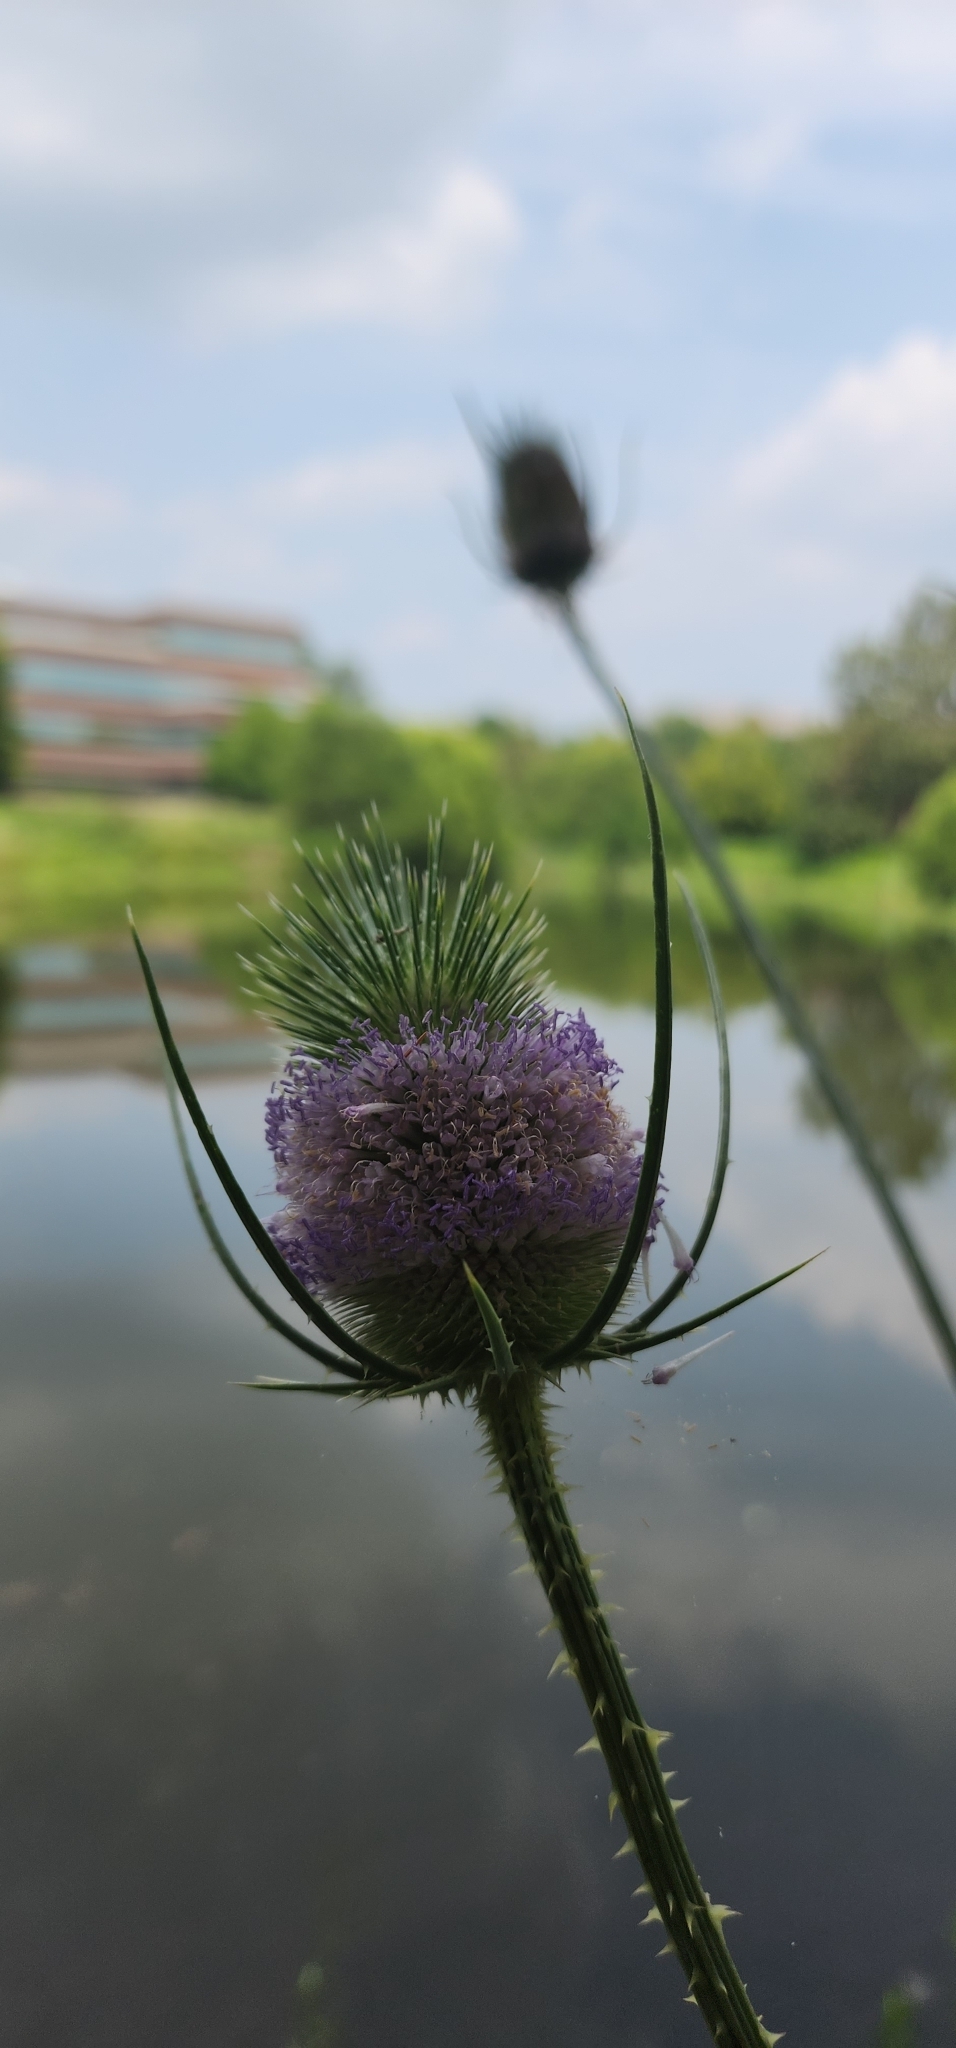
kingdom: Plantae
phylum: Tracheophyta
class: Magnoliopsida
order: Dipsacales
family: Caprifoliaceae
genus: Dipsacus
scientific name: Dipsacus fullonum
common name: Teasel
